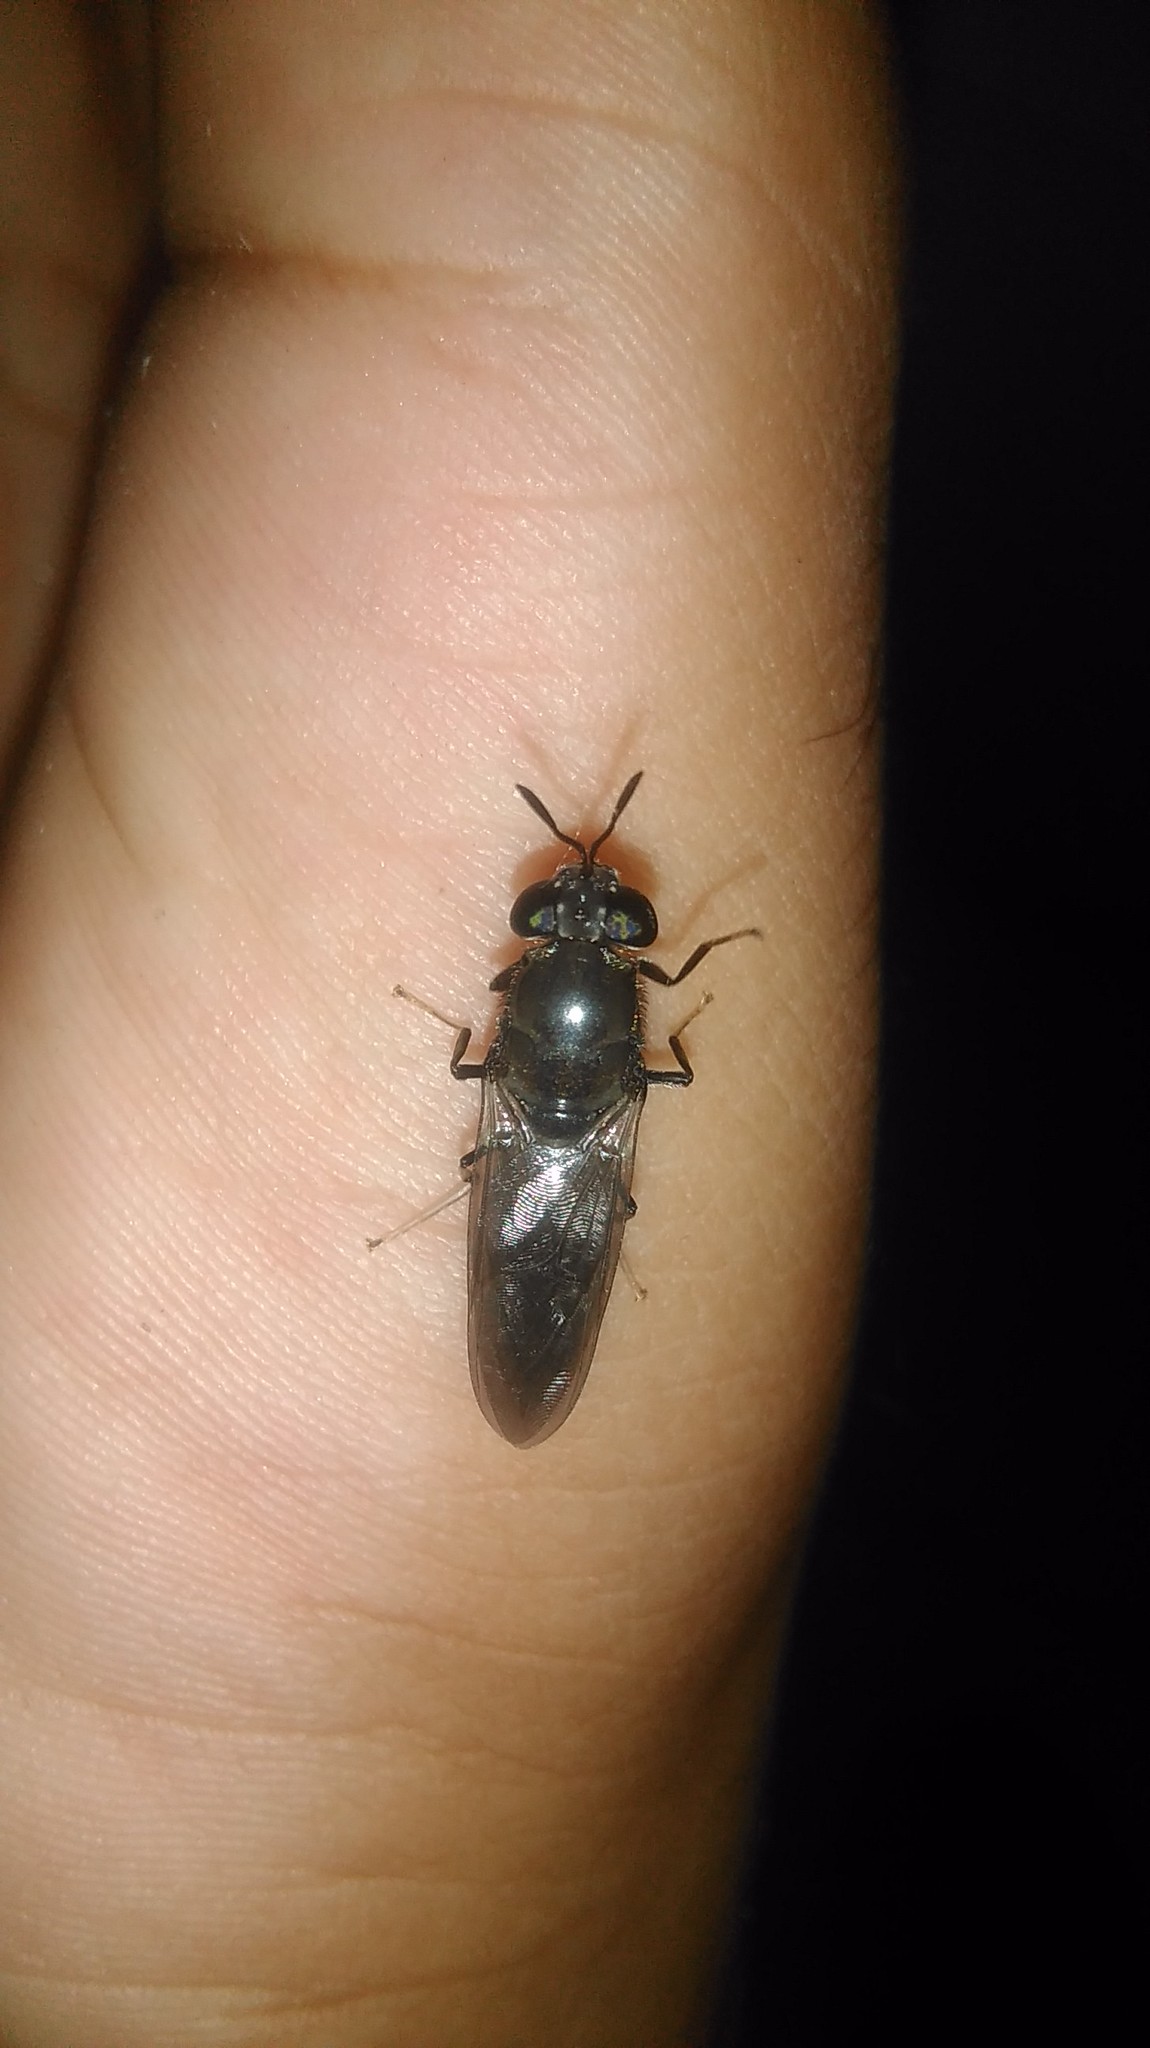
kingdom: Animalia
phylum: Arthropoda
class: Insecta
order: Diptera
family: Stratiomyidae
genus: Hermetia
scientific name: Hermetia illucens
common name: Black soldier fly
